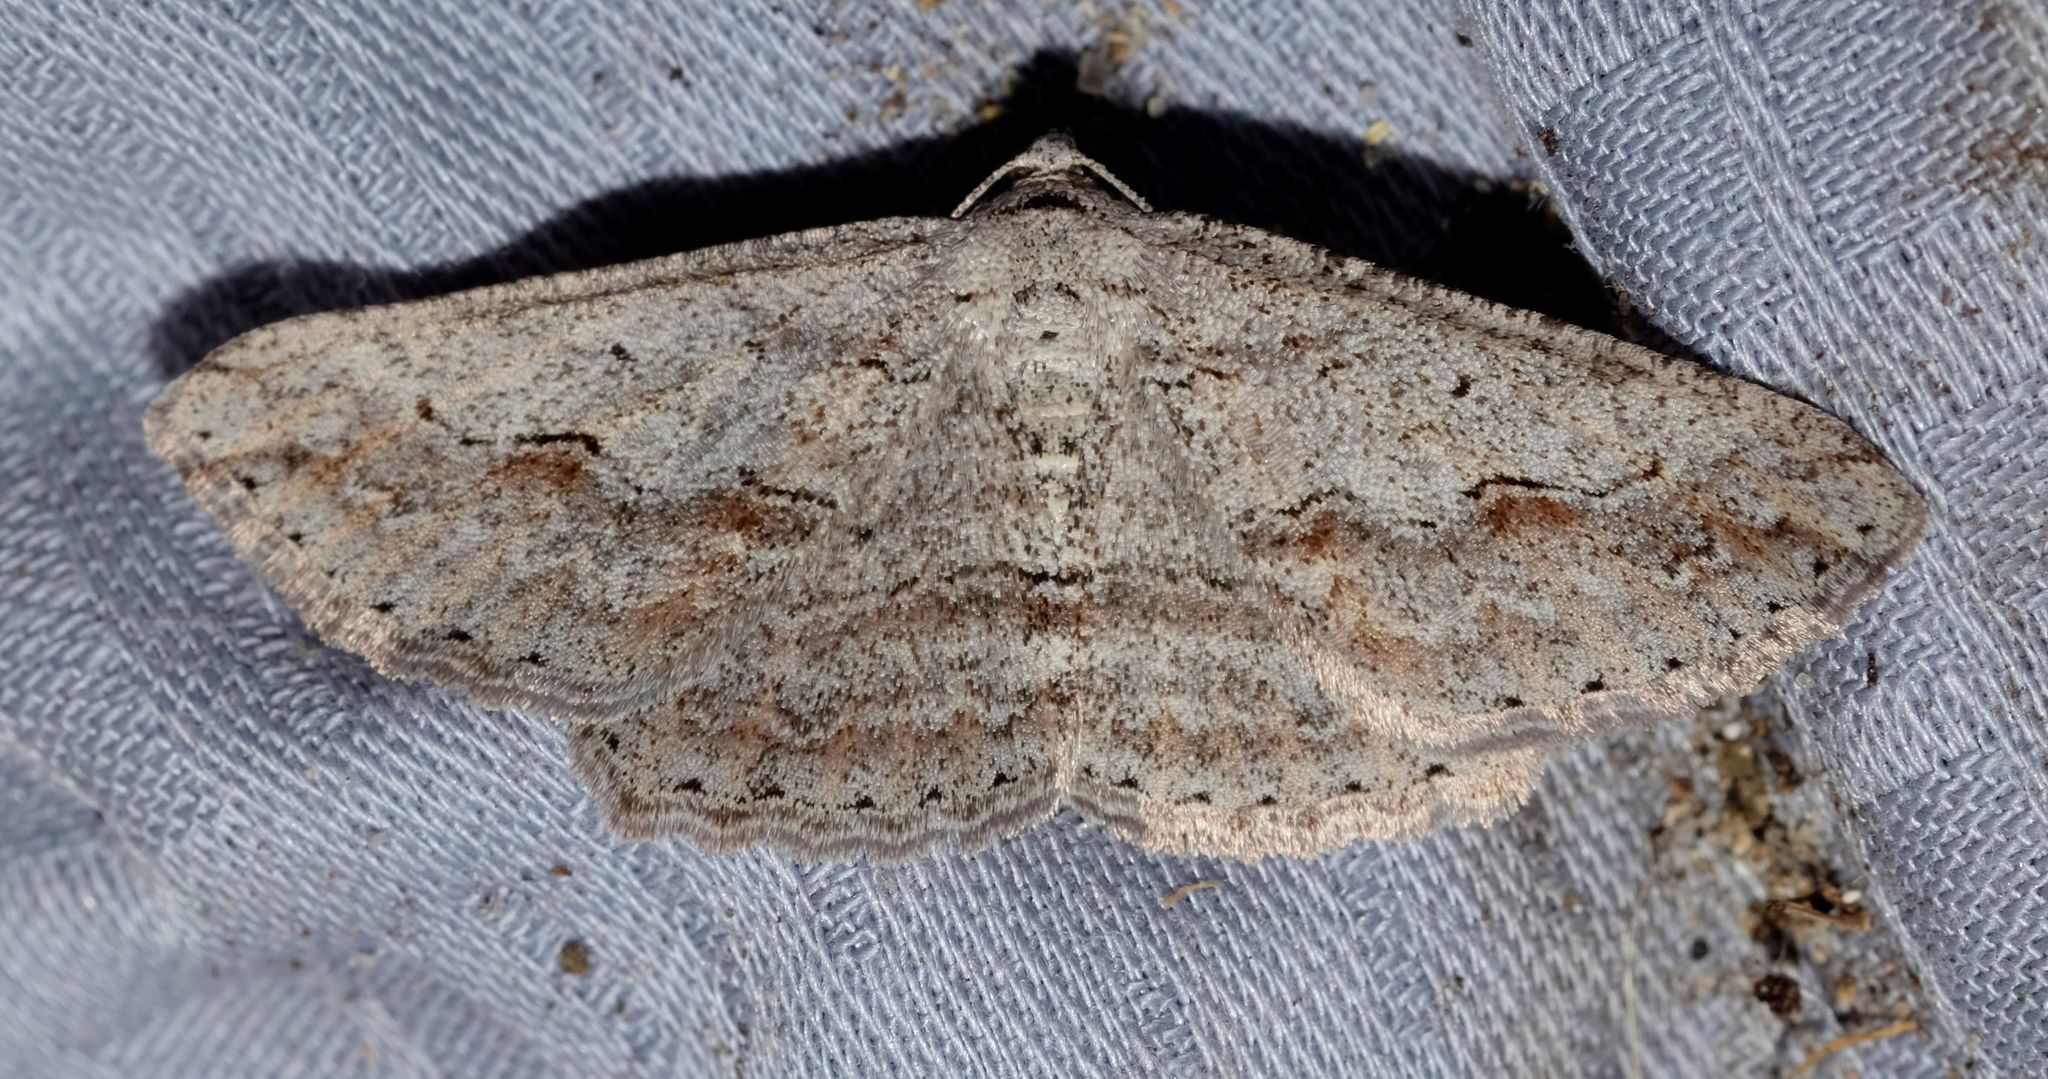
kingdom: Animalia
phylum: Arthropoda
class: Insecta
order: Lepidoptera
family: Geometridae
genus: Syneora
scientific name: Syneora mundifera
